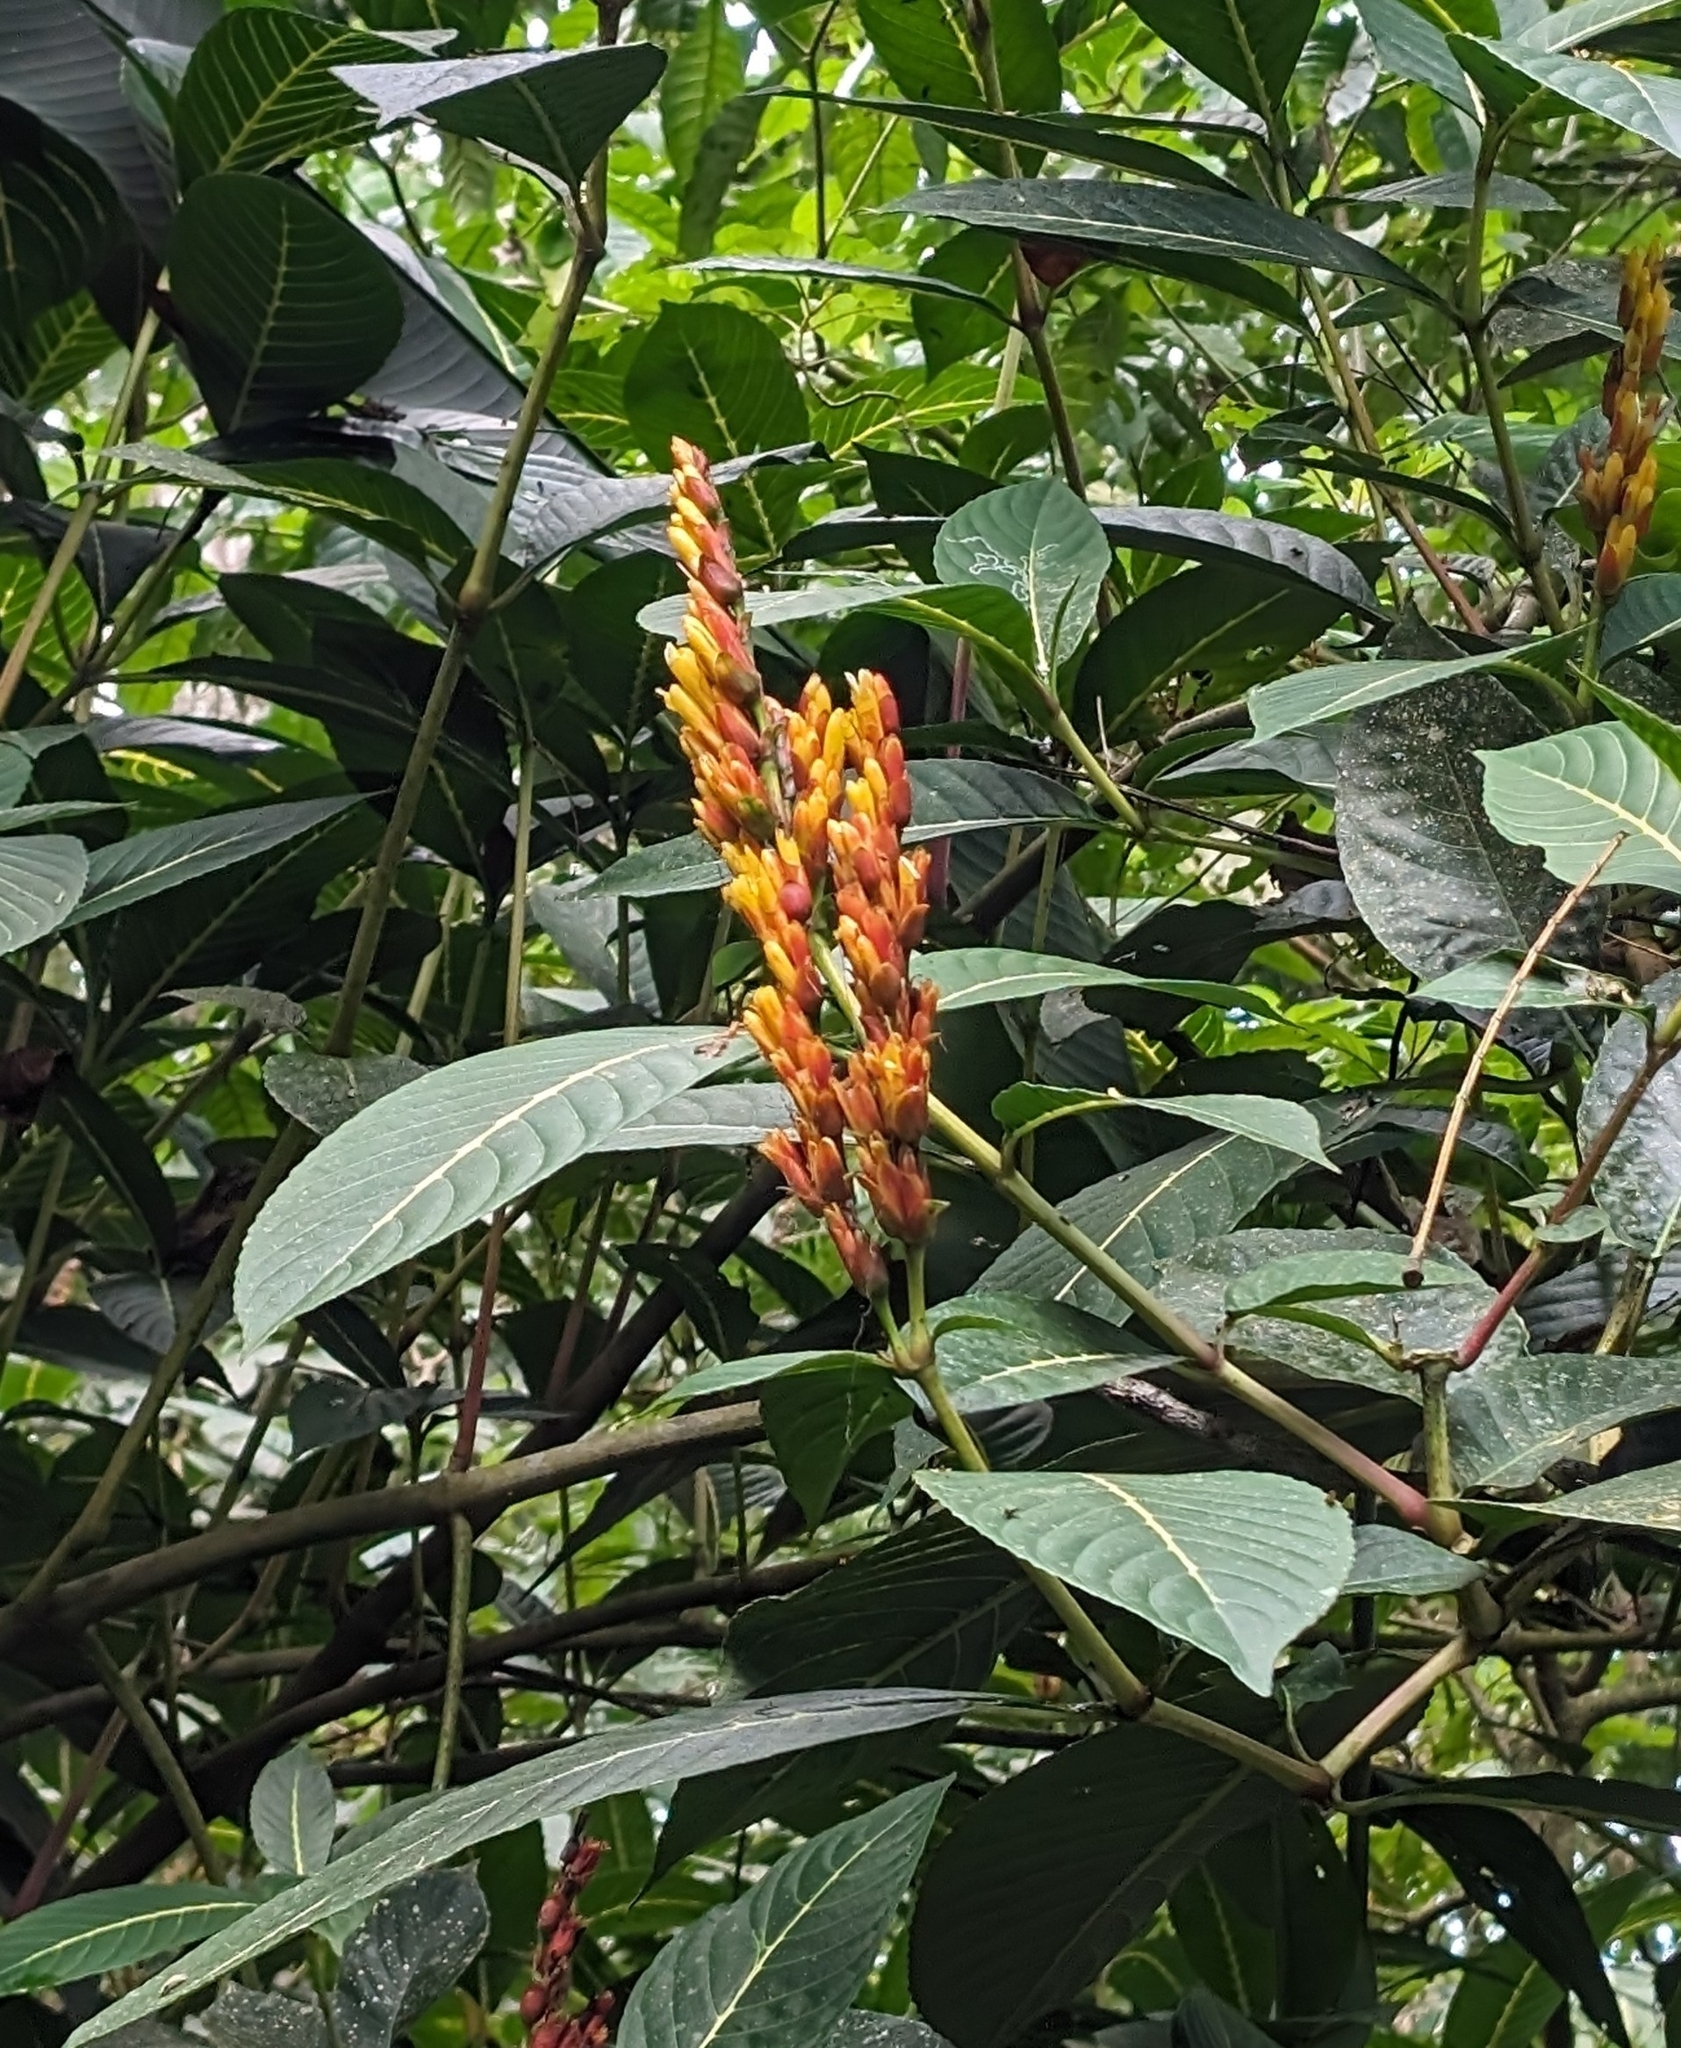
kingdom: Plantae
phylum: Tracheophyta
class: Magnoliopsida
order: Lamiales
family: Acanthaceae
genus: Sanchezia
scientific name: Sanchezia parvibracteata
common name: Sanchezia
